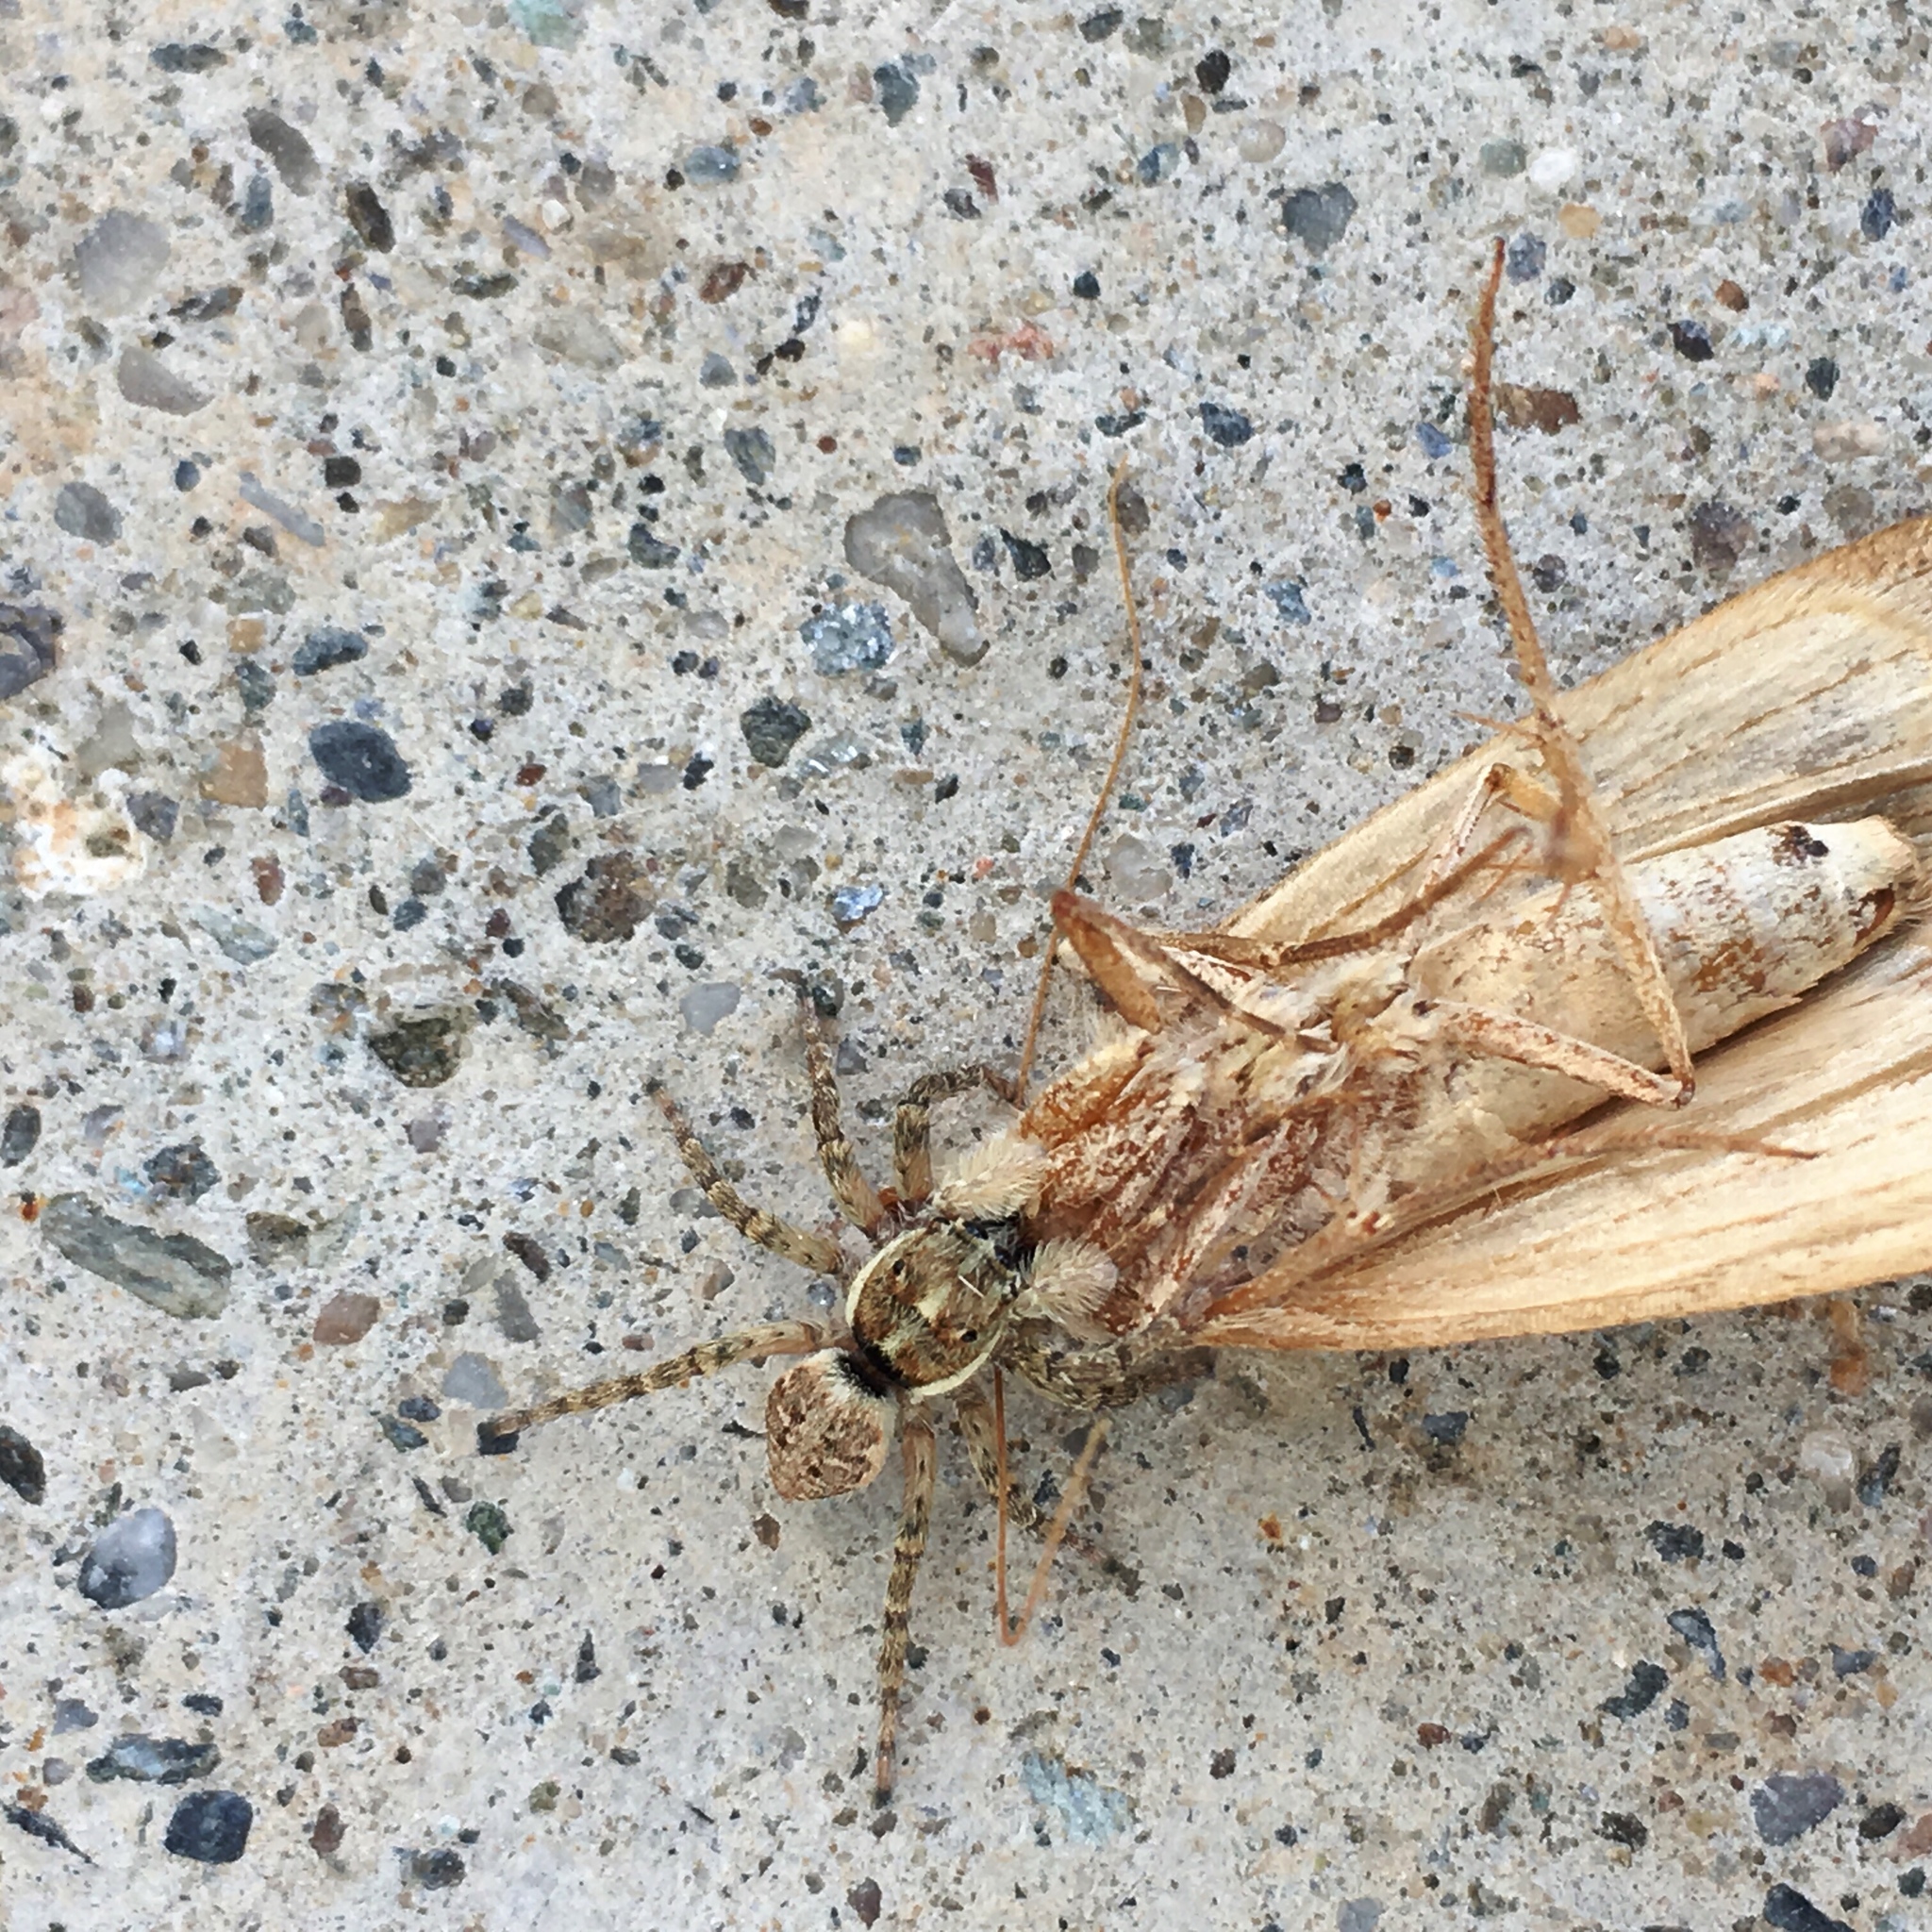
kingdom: Animalia
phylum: Arthropoda
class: Arachnida
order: Araneae
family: Salticidae
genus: Menemerus
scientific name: Menemerus semilimbatus
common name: Jumping spider
